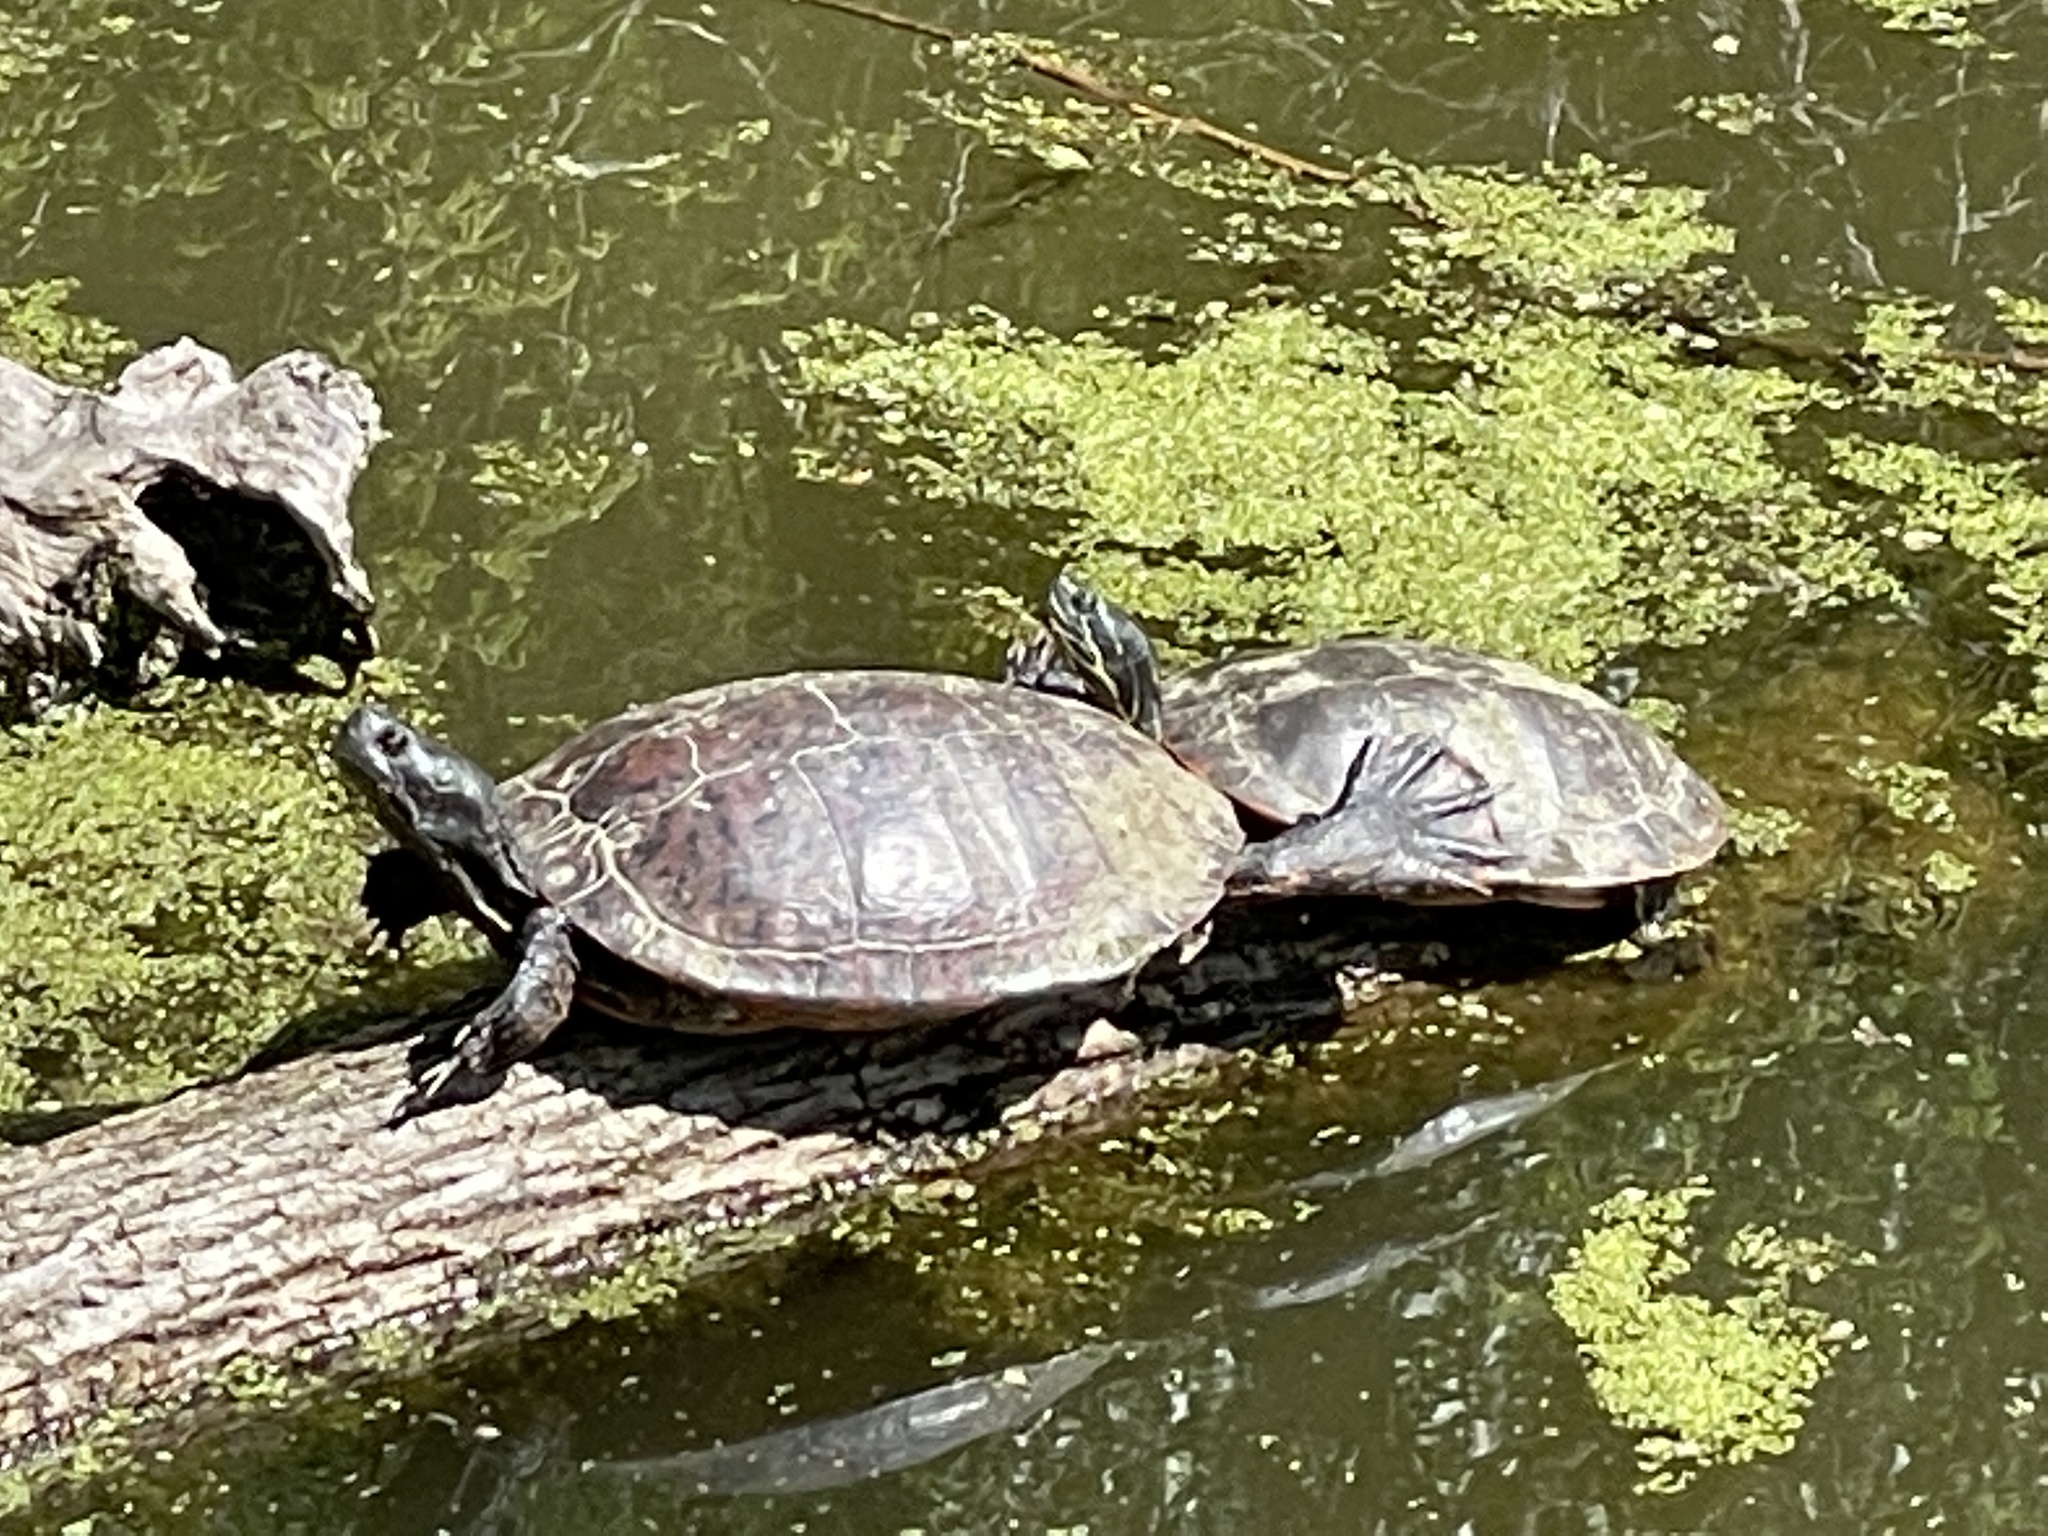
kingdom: Animalia
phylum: Chordata
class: Testudines
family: Emydidae
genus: Pseudemys
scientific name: Pseudemys rubriventris
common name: American red-bellied turtle
